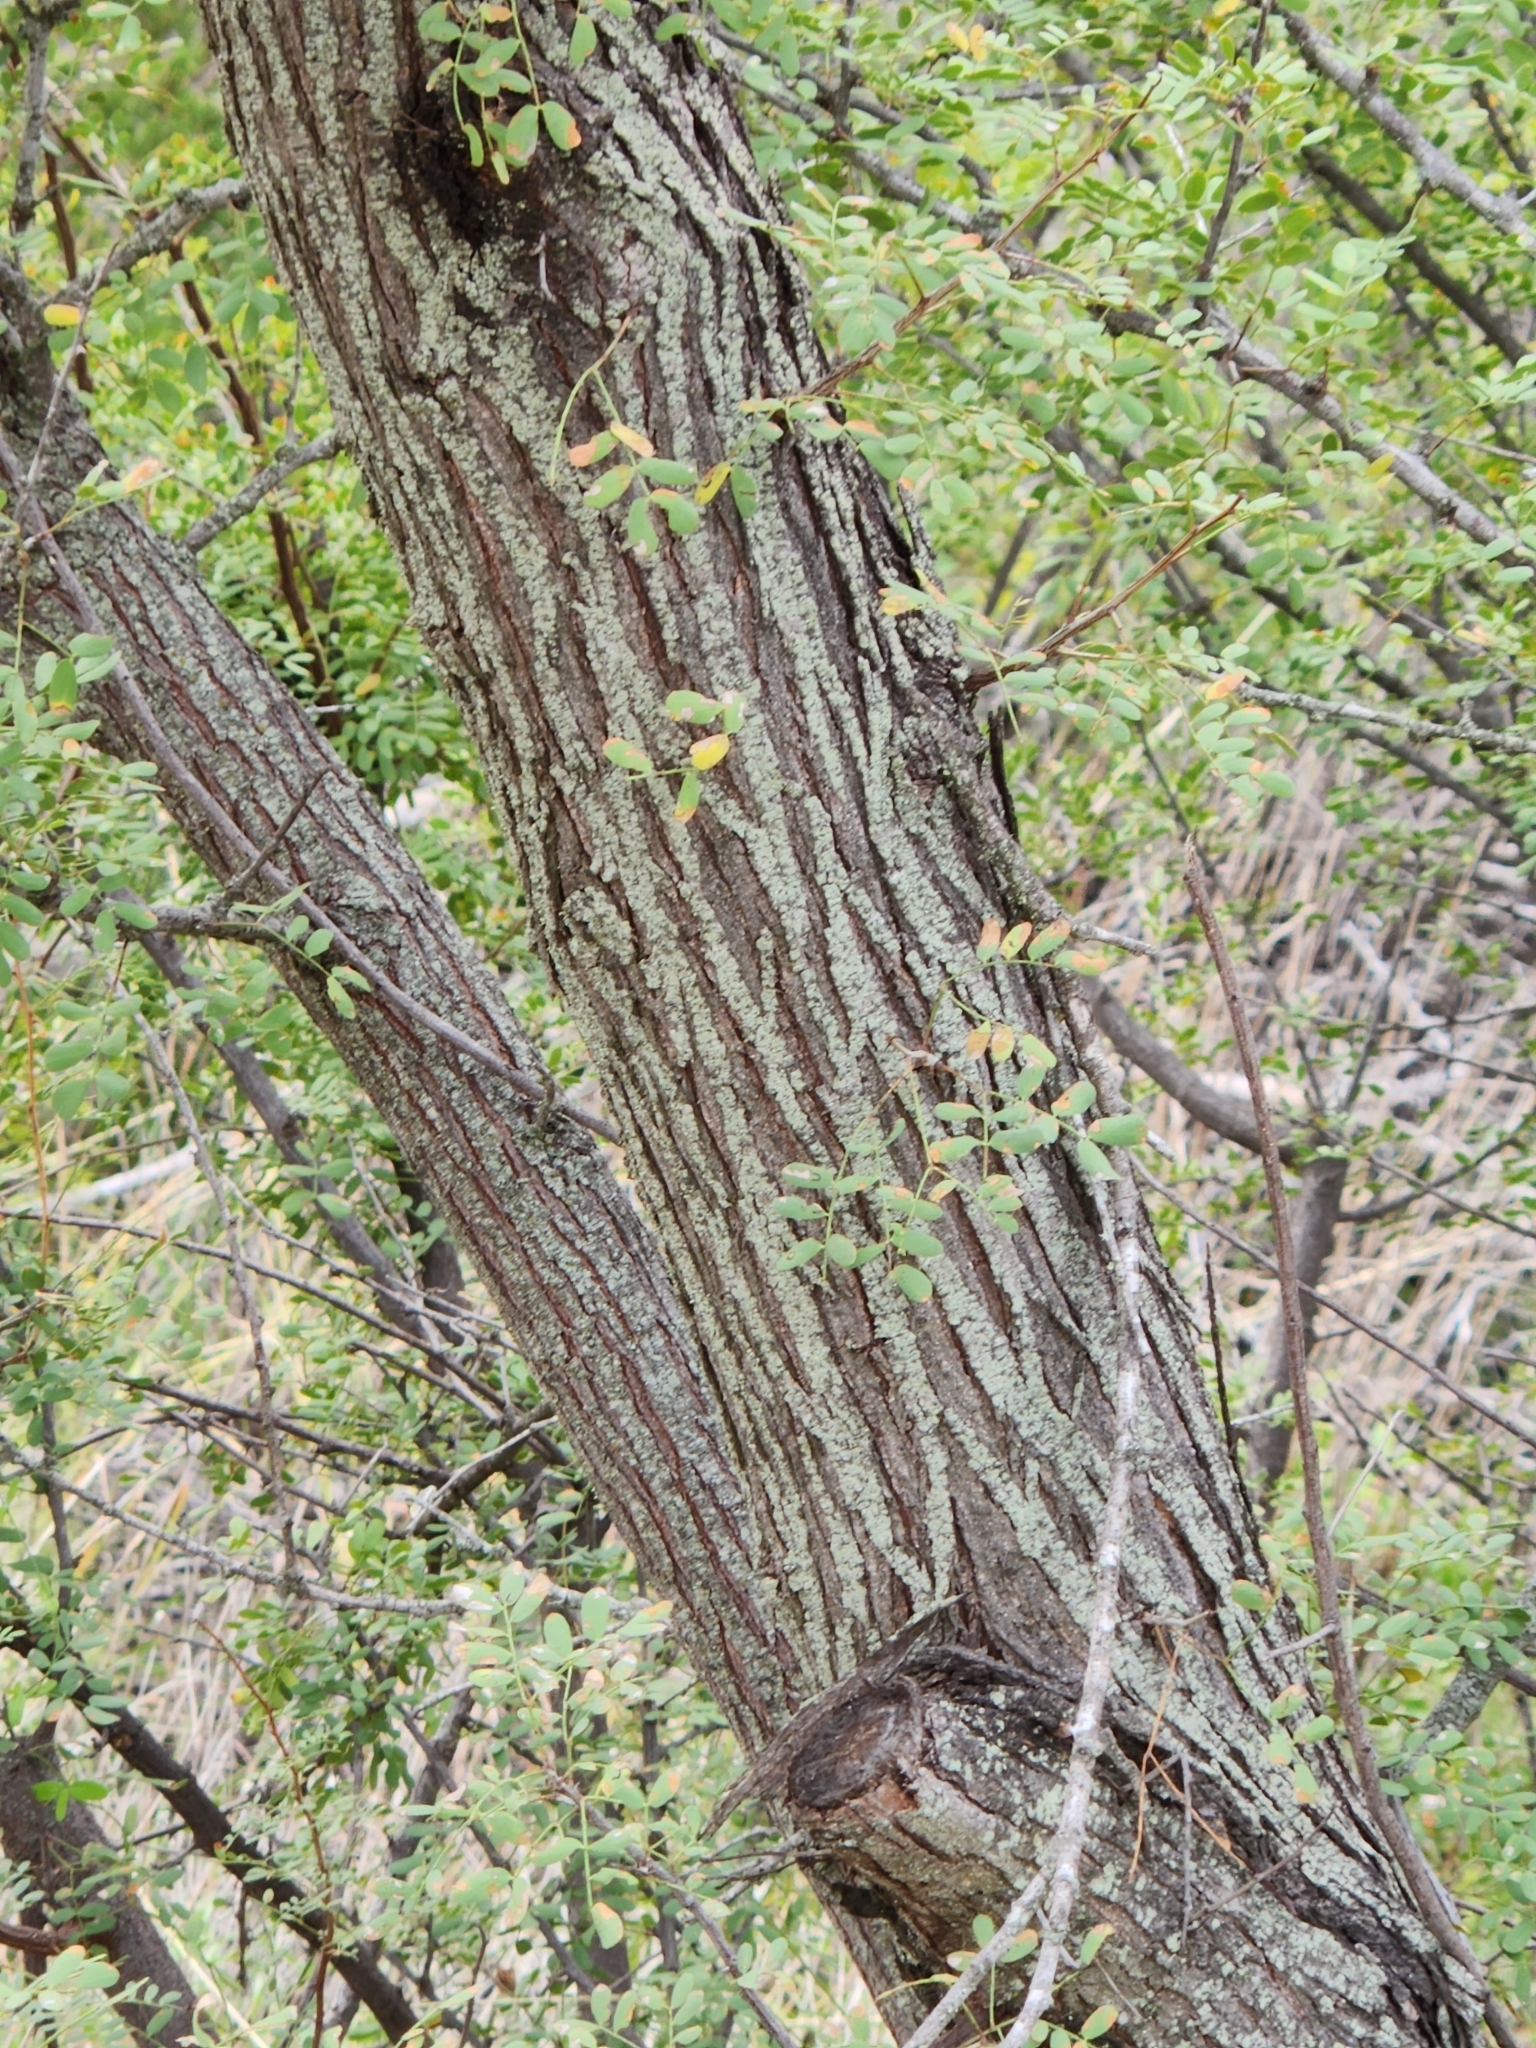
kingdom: Plantae
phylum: Tracheophyta
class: Magnoliopsida
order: Fabales
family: Fabaceae
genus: Senegalia
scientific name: Senegalia wrightii
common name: Texas cat's-claw
